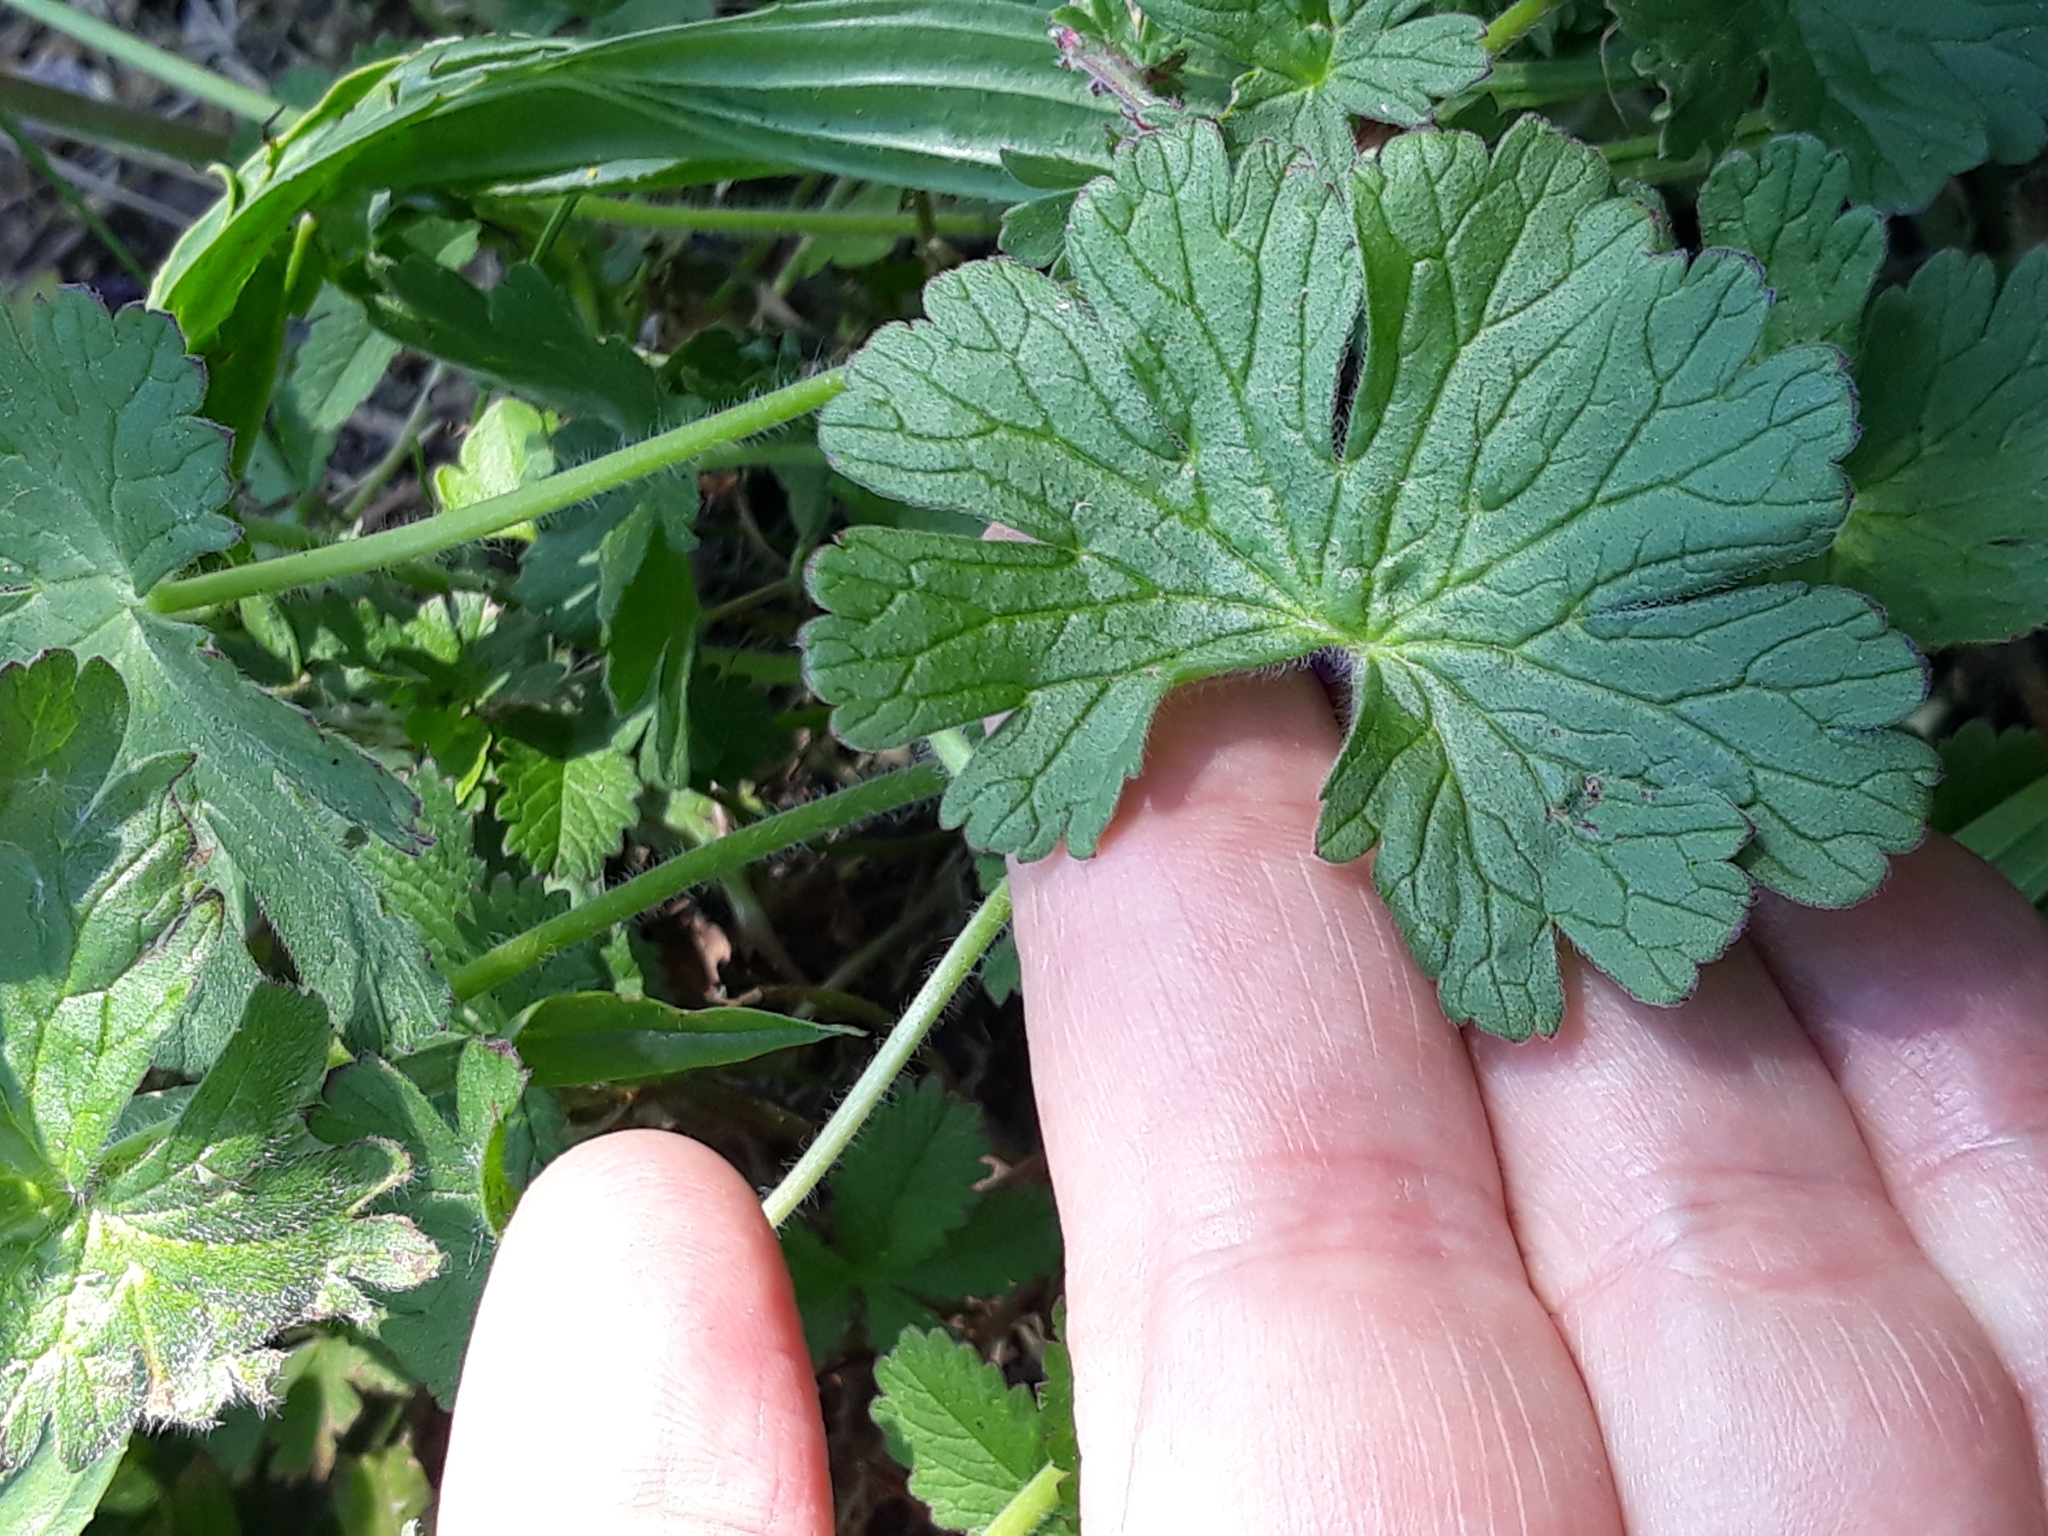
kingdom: Plantae
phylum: Tracheophyta
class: Magnoliopsida
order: Geraniales
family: Geraniaceae
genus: Geranium
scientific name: Geranium pyrenaicum
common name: Hedgerow crane's-bill
